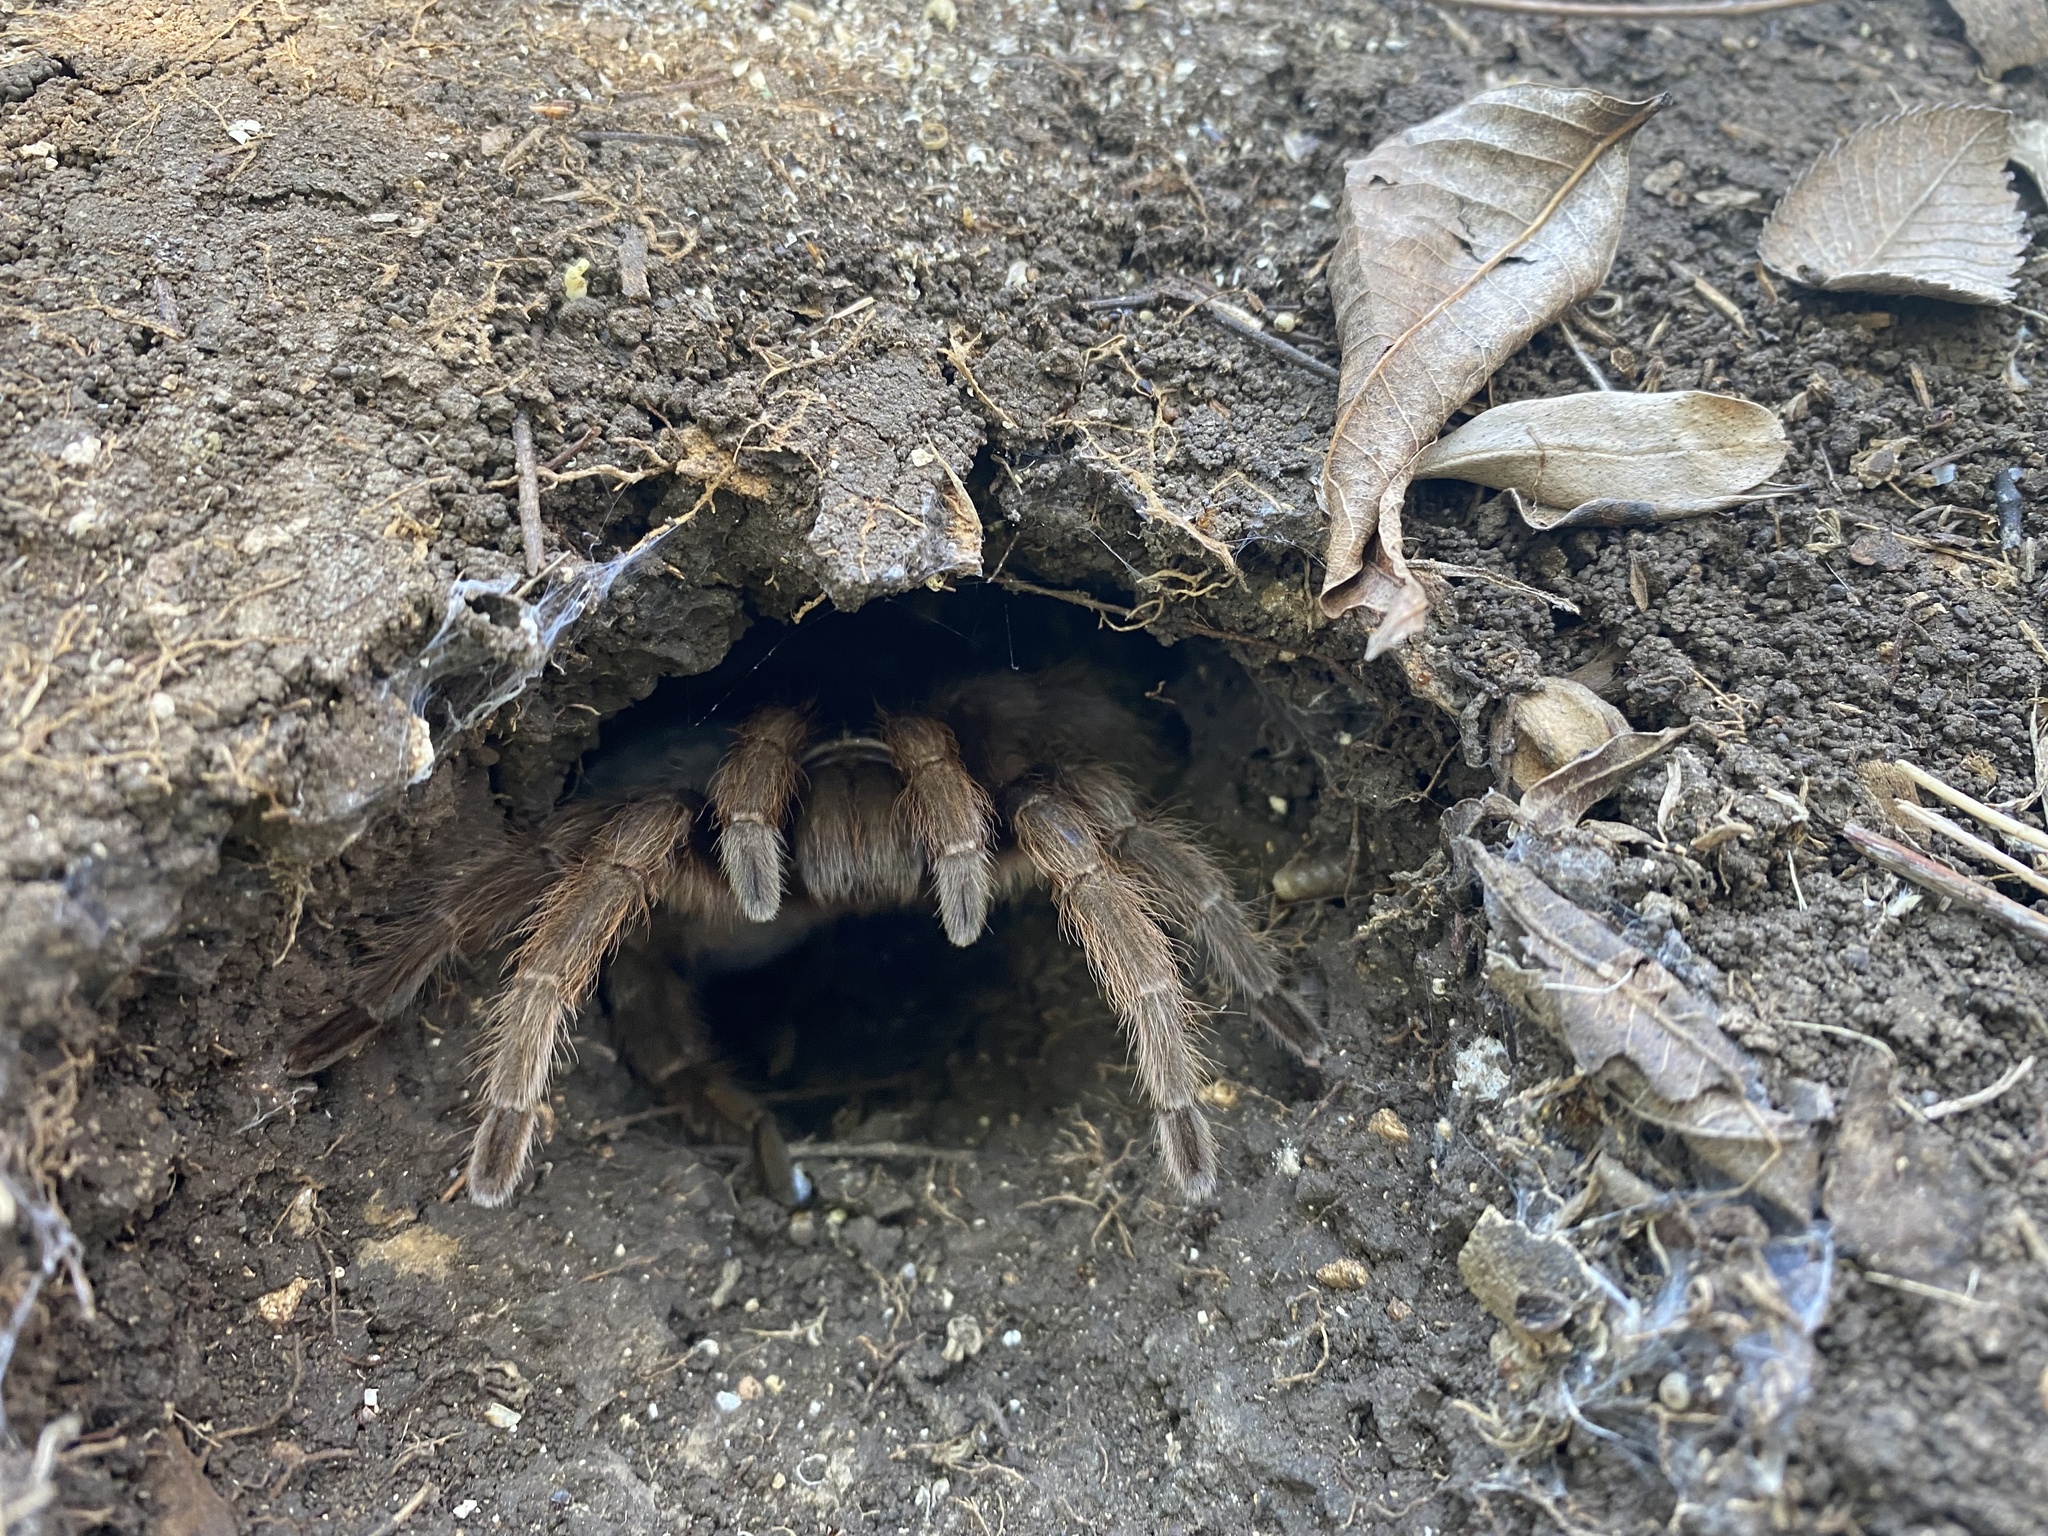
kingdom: Animalia
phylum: Arthropoda
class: Arachnida
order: Araneae
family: Theraphosidae
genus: Aphonopelma
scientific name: Aphonopelma hentzi
